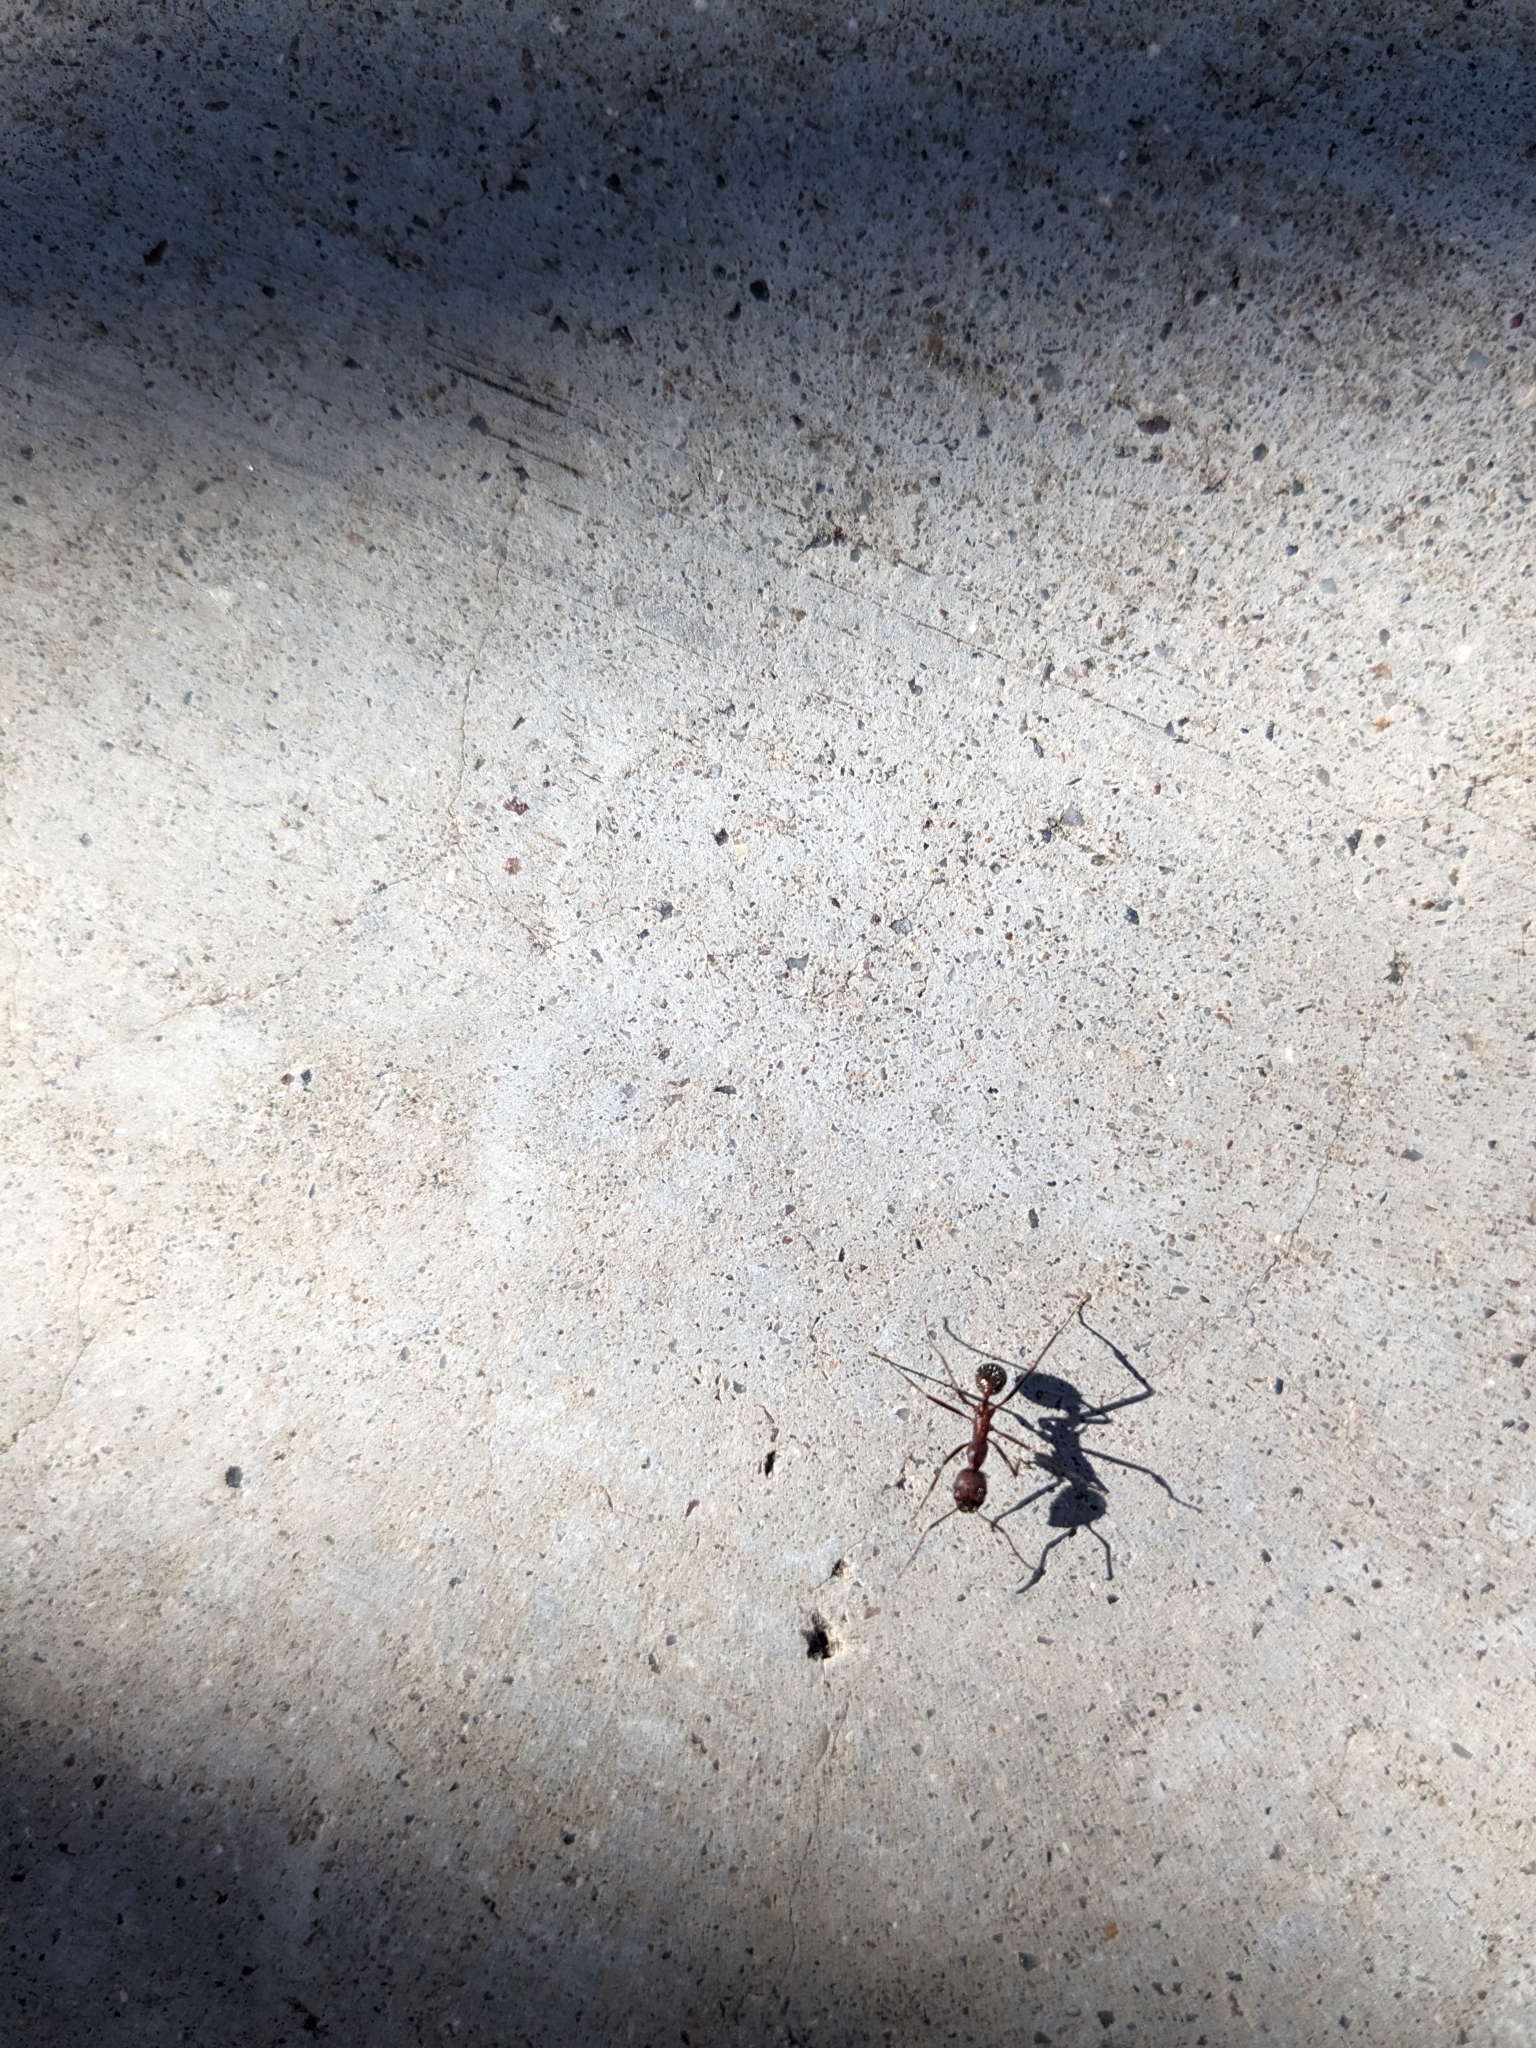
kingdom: Animalia
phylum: Arthropoda
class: Insecta
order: Hymenoptera
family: Formicidae
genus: Novomessor
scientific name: Novomessor albisetosa
